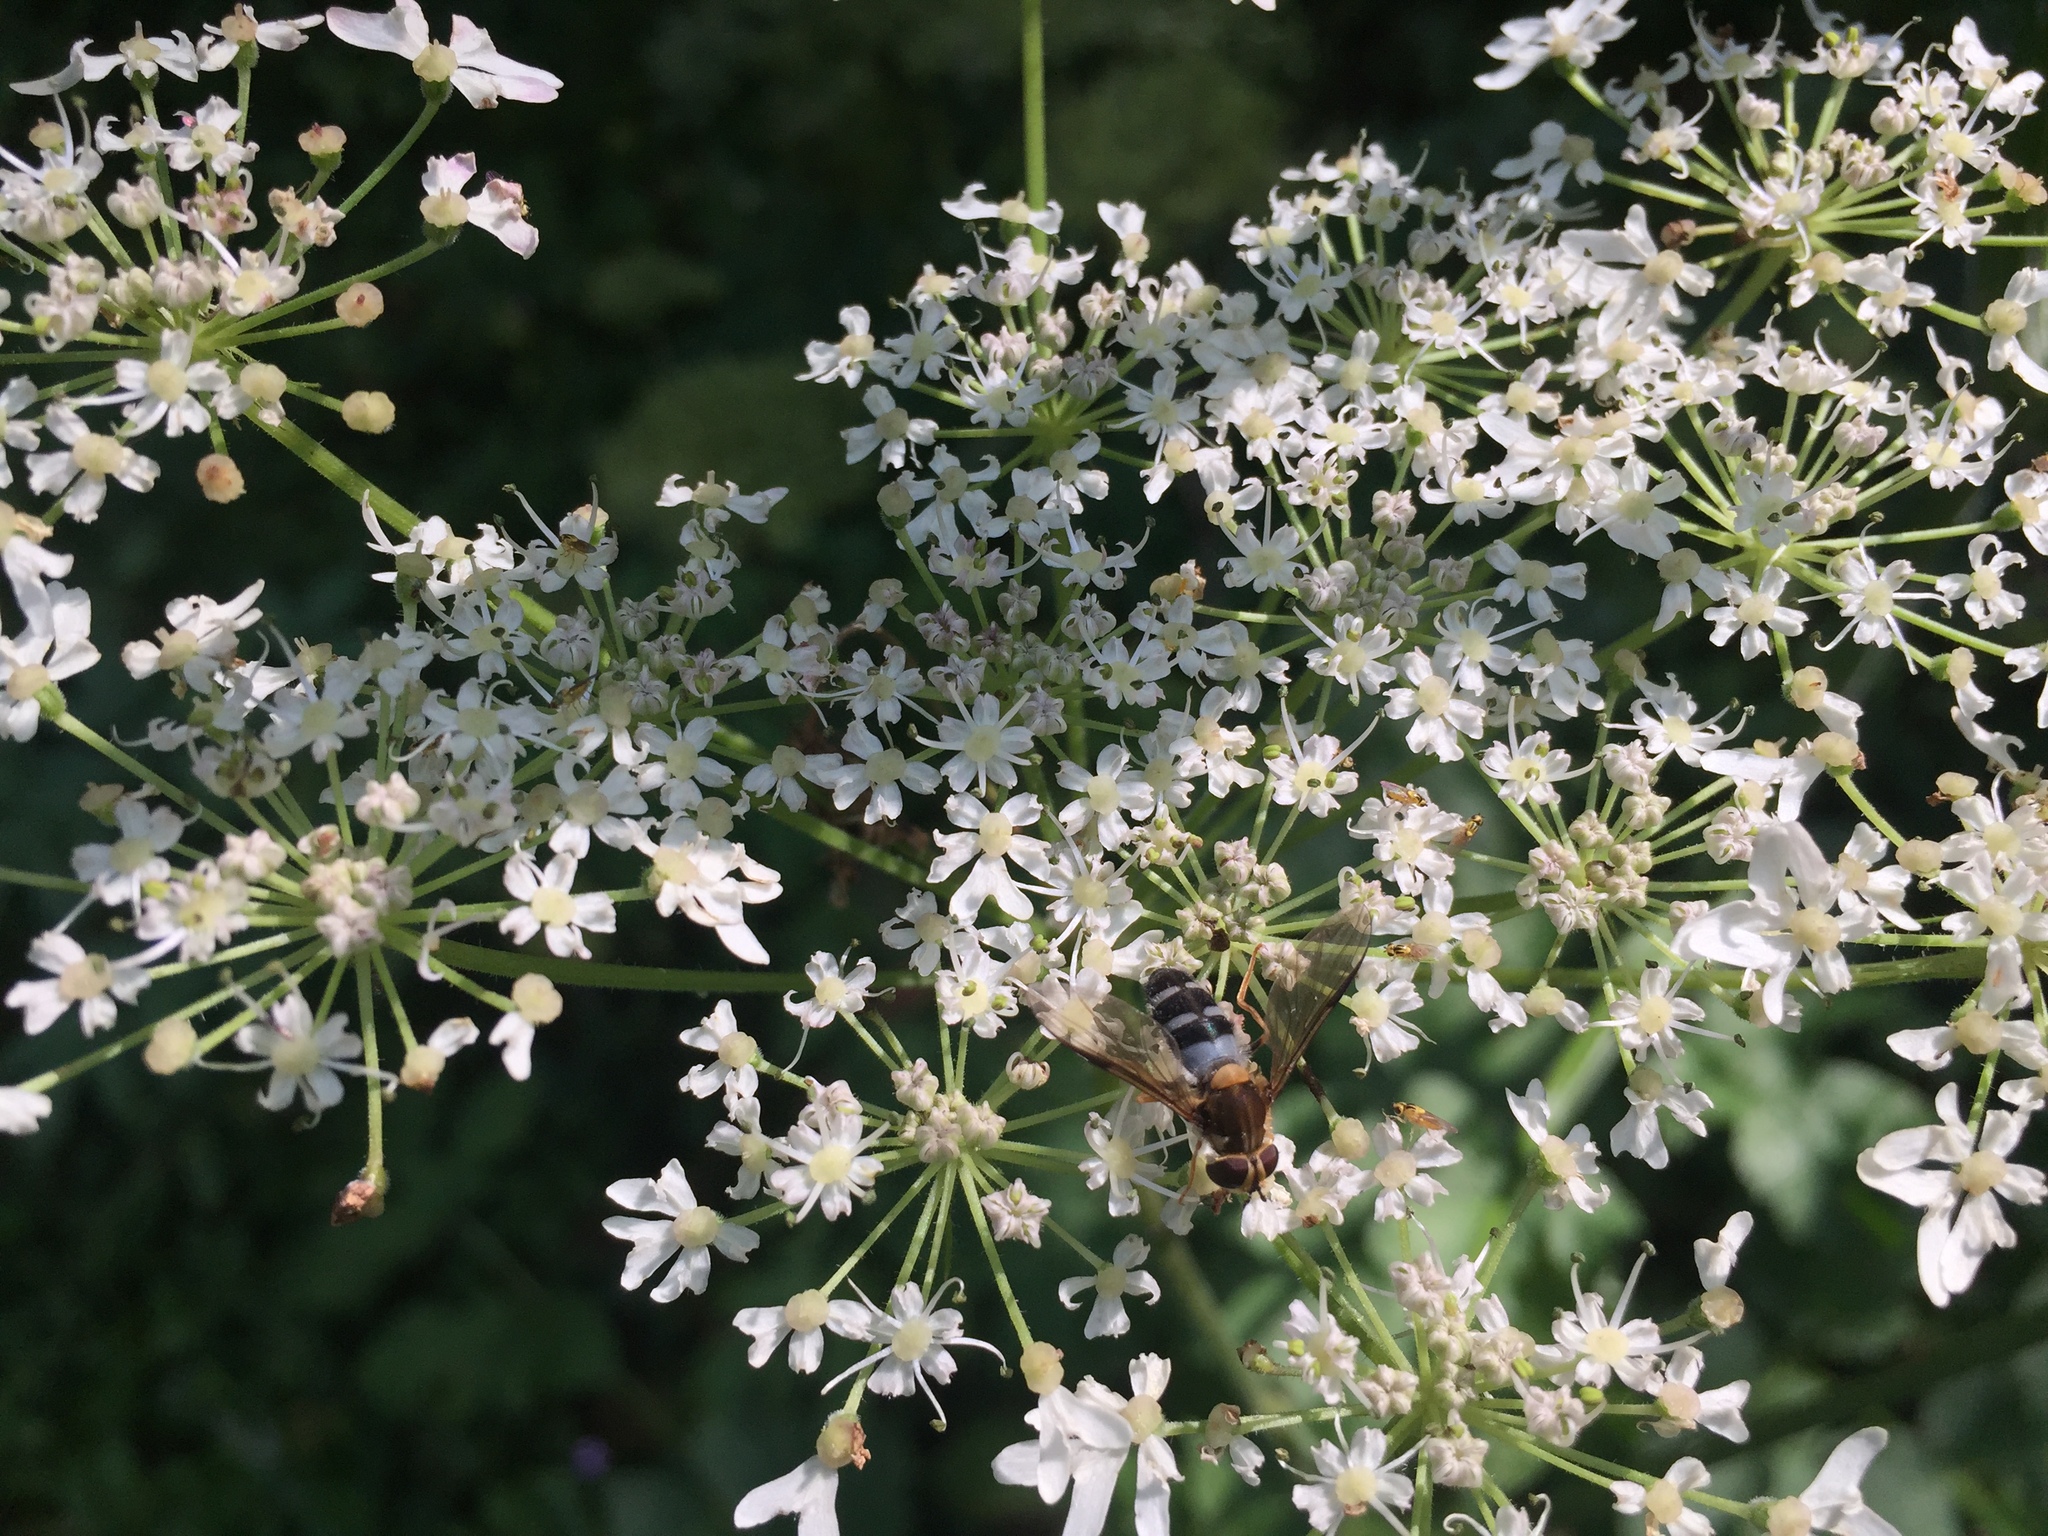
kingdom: Animalia
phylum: Arthropoda
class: Insecta
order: Diptera
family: Syrphidae
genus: Leucozona
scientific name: Leucozona glaucia
